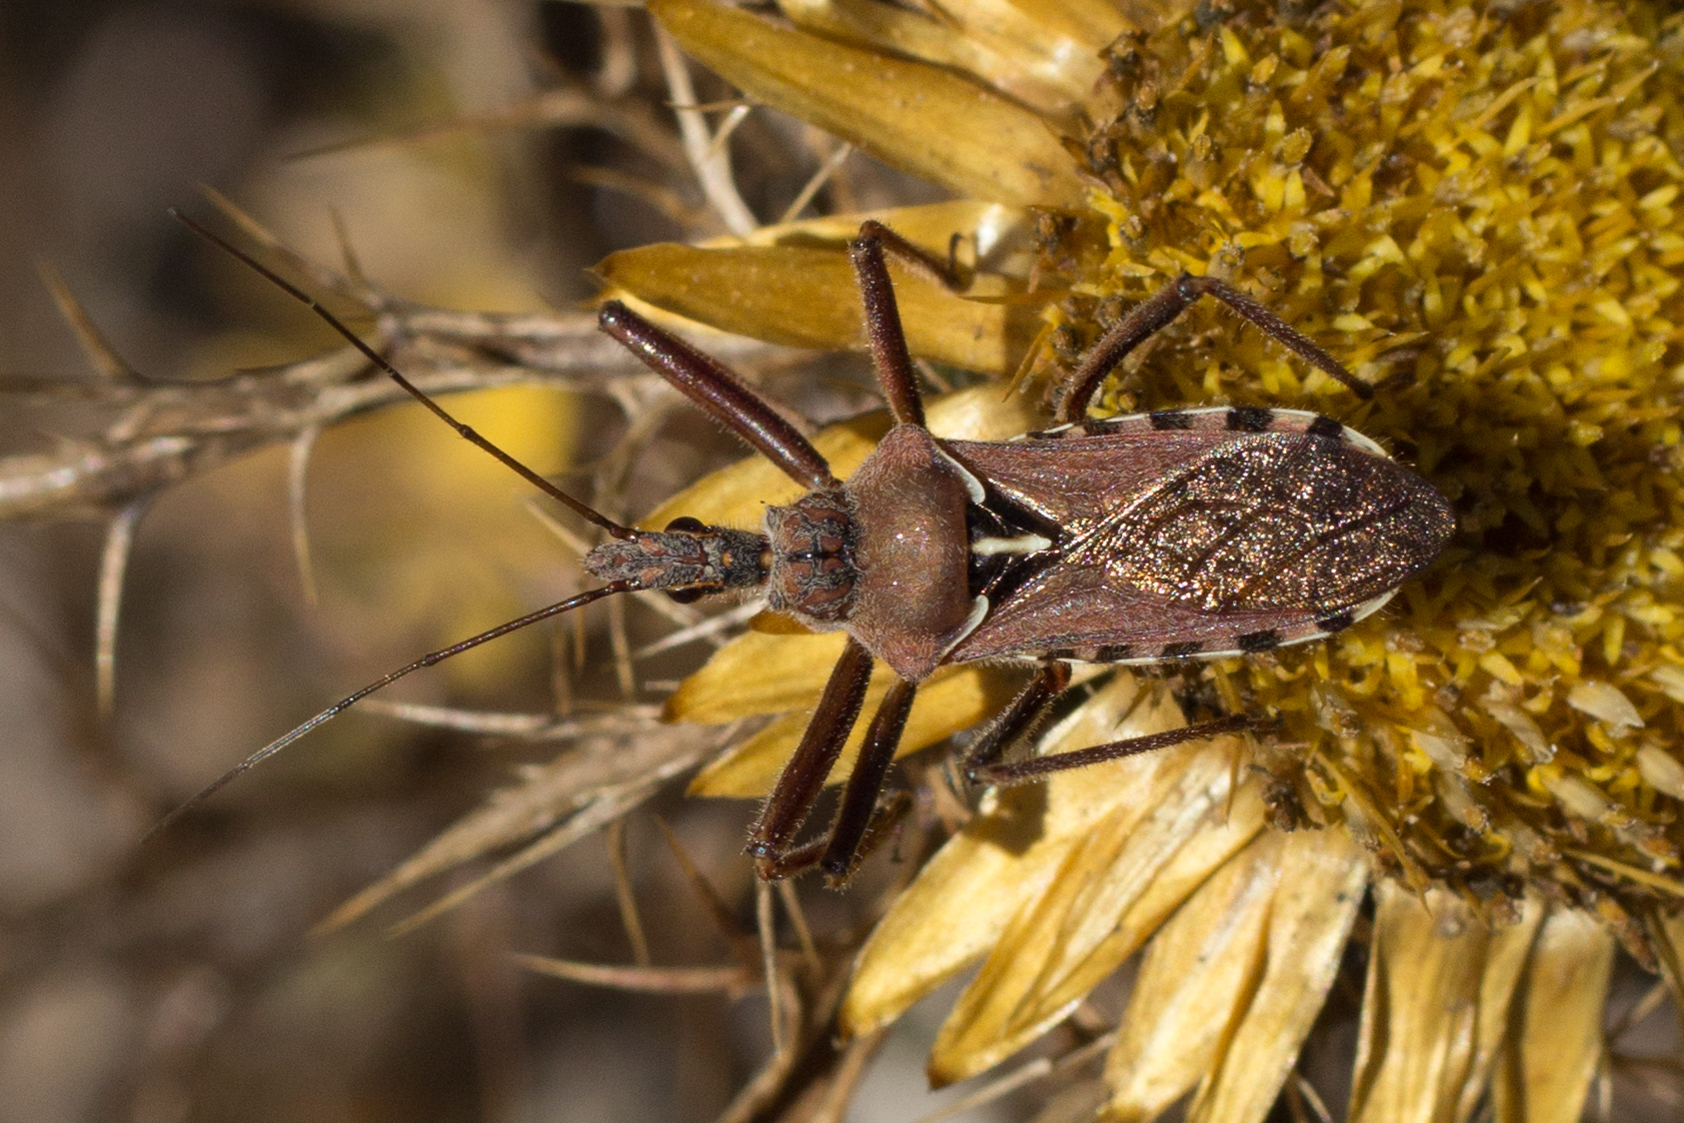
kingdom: Animalia
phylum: Arthropoda
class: Insecta
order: Hemiptera
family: Reduviidae
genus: Rhynocoris
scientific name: Rhynocoris erythropus
